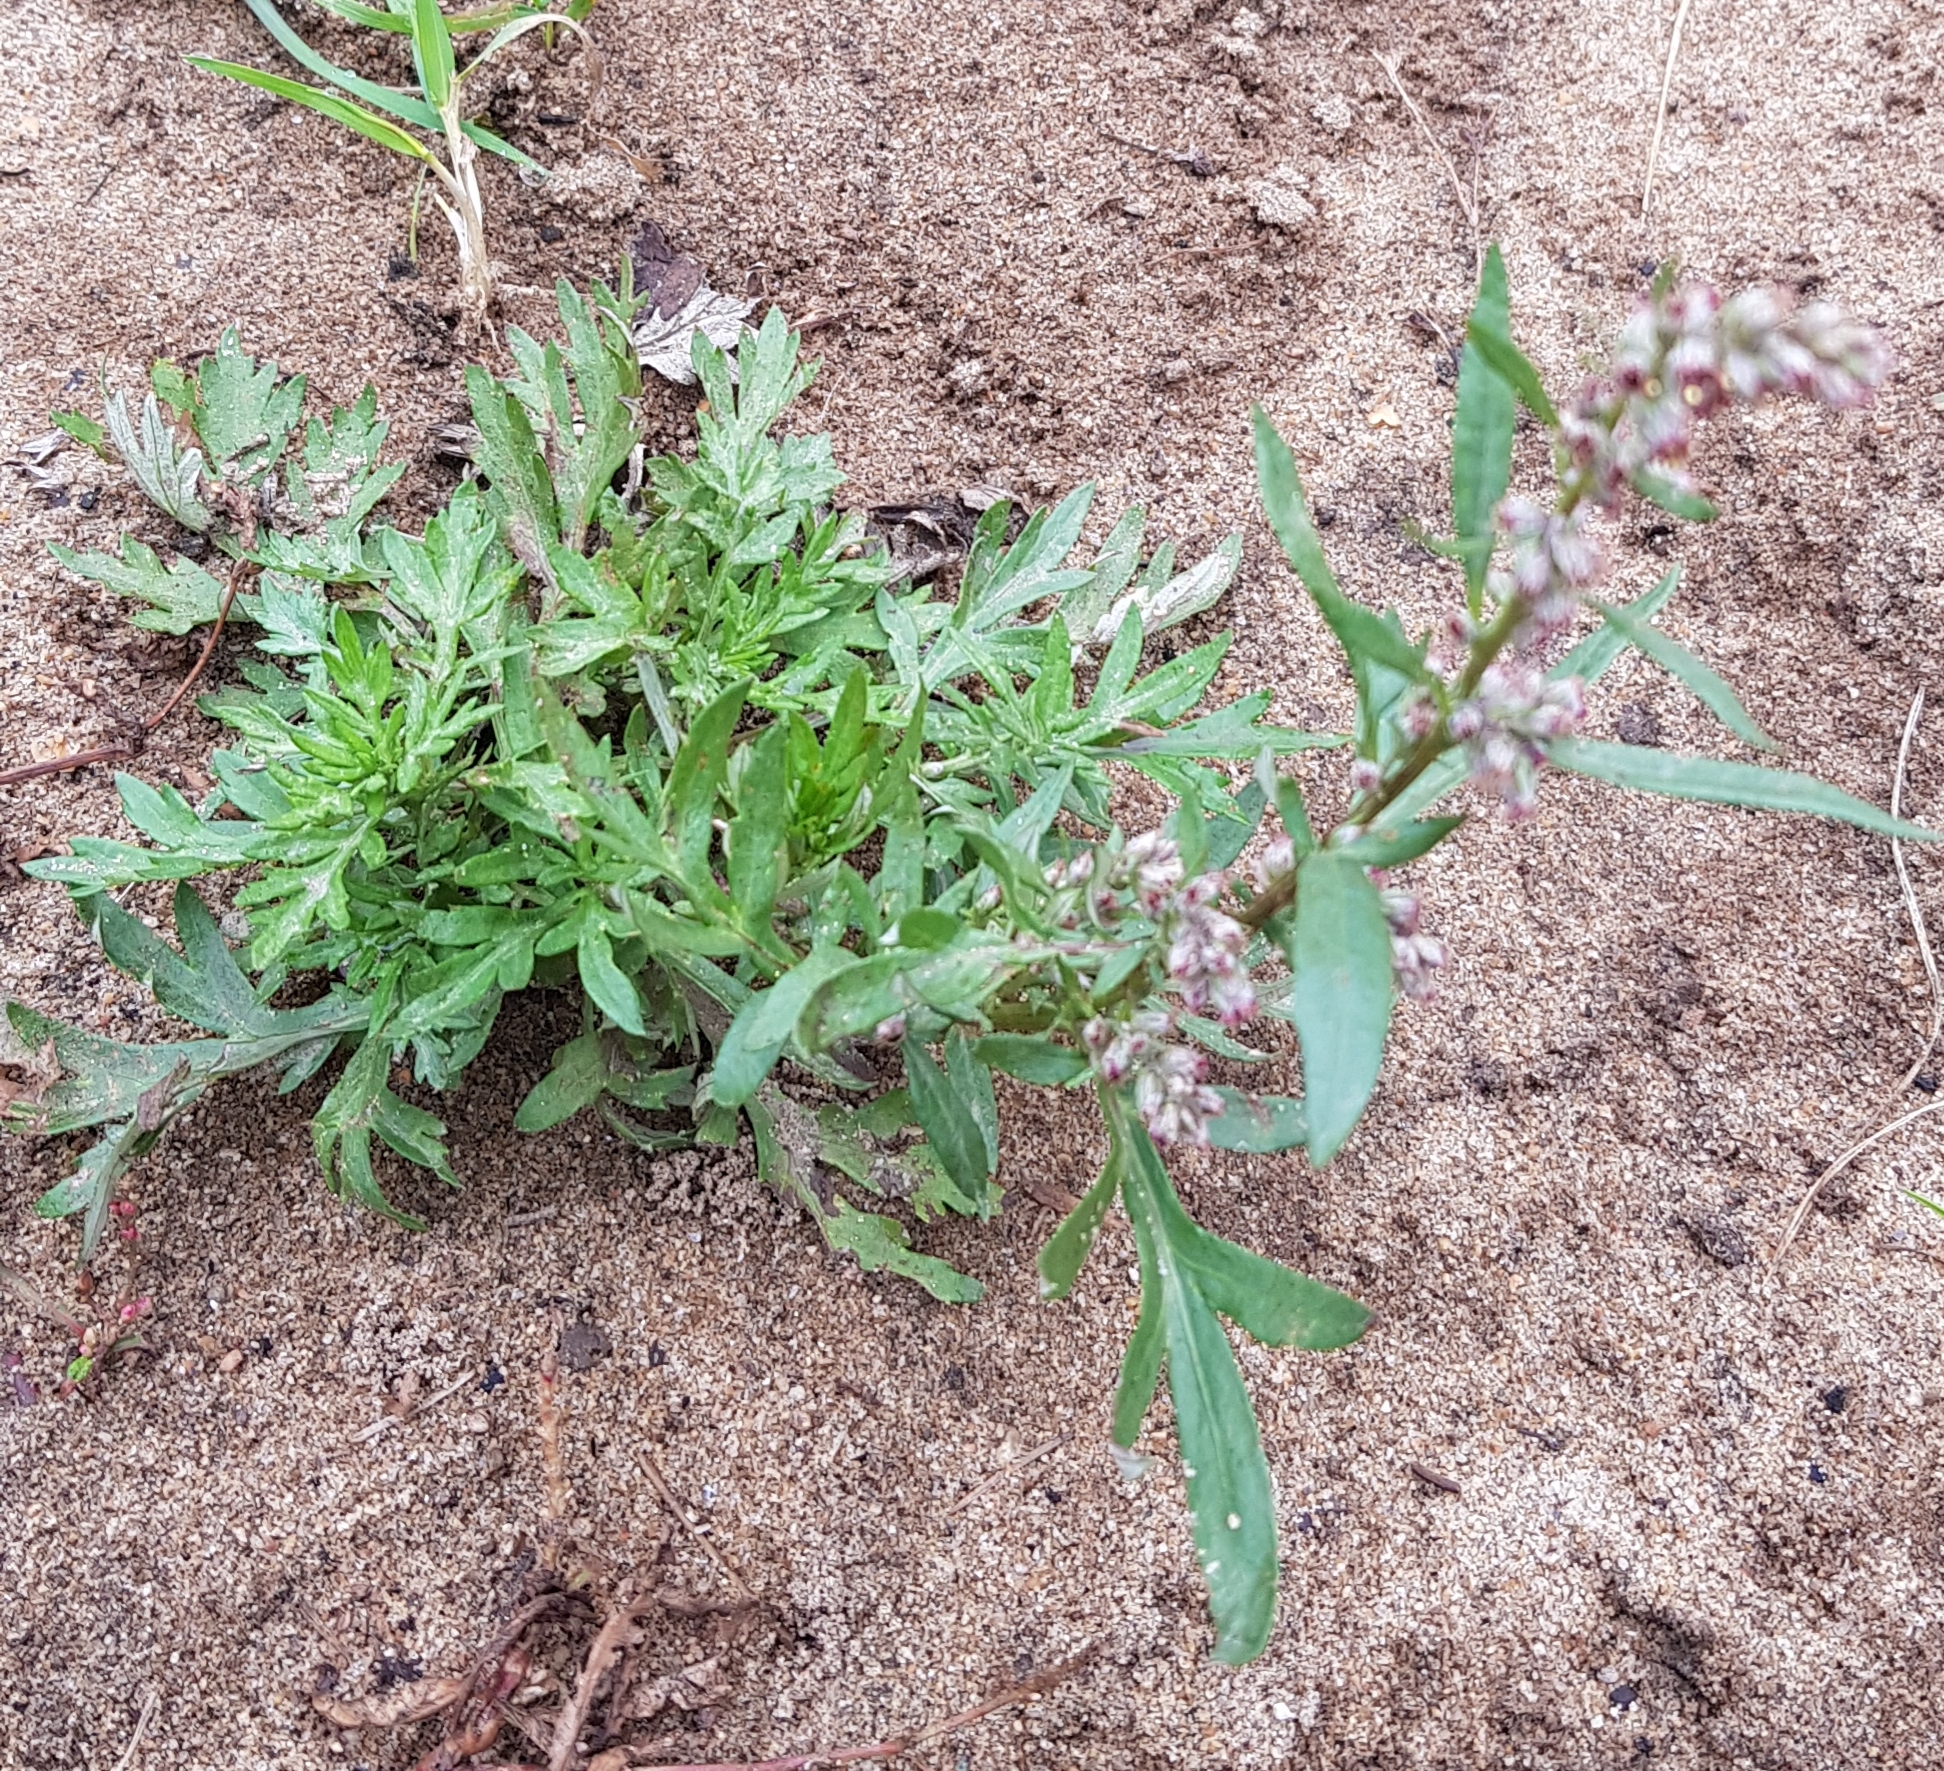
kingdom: Plantae
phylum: Tracheophyta
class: Magnoliopsida
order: Asterales
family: Asteraceae
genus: Artemisia
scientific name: Artemisia vulgaris
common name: Mugwort
